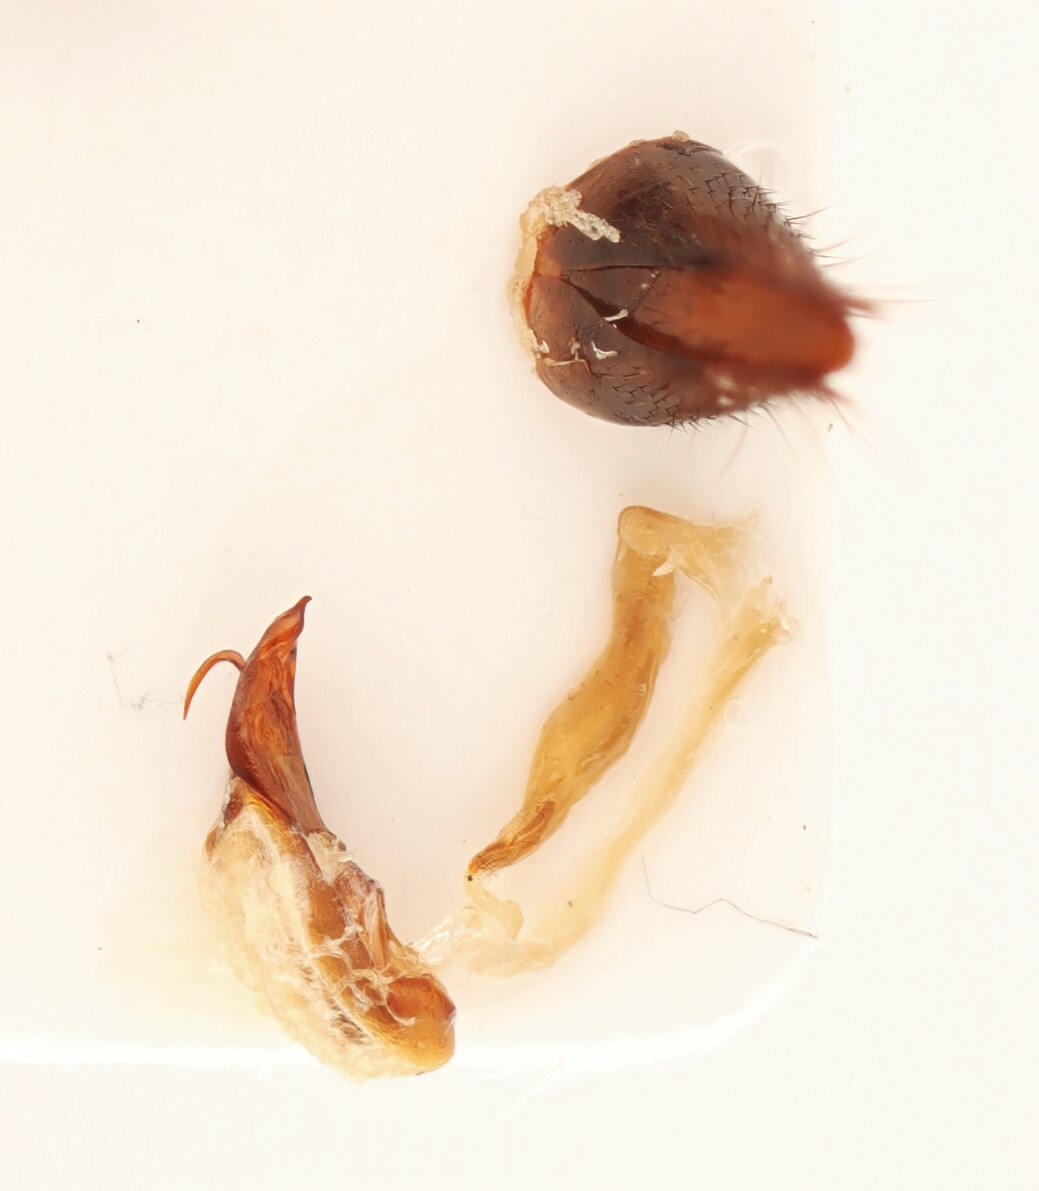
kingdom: Animalia
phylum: Arthropoda
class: Insecta
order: Coleoptera
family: Staphylinidae
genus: Lathrobium
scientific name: Lathrobium armatum
